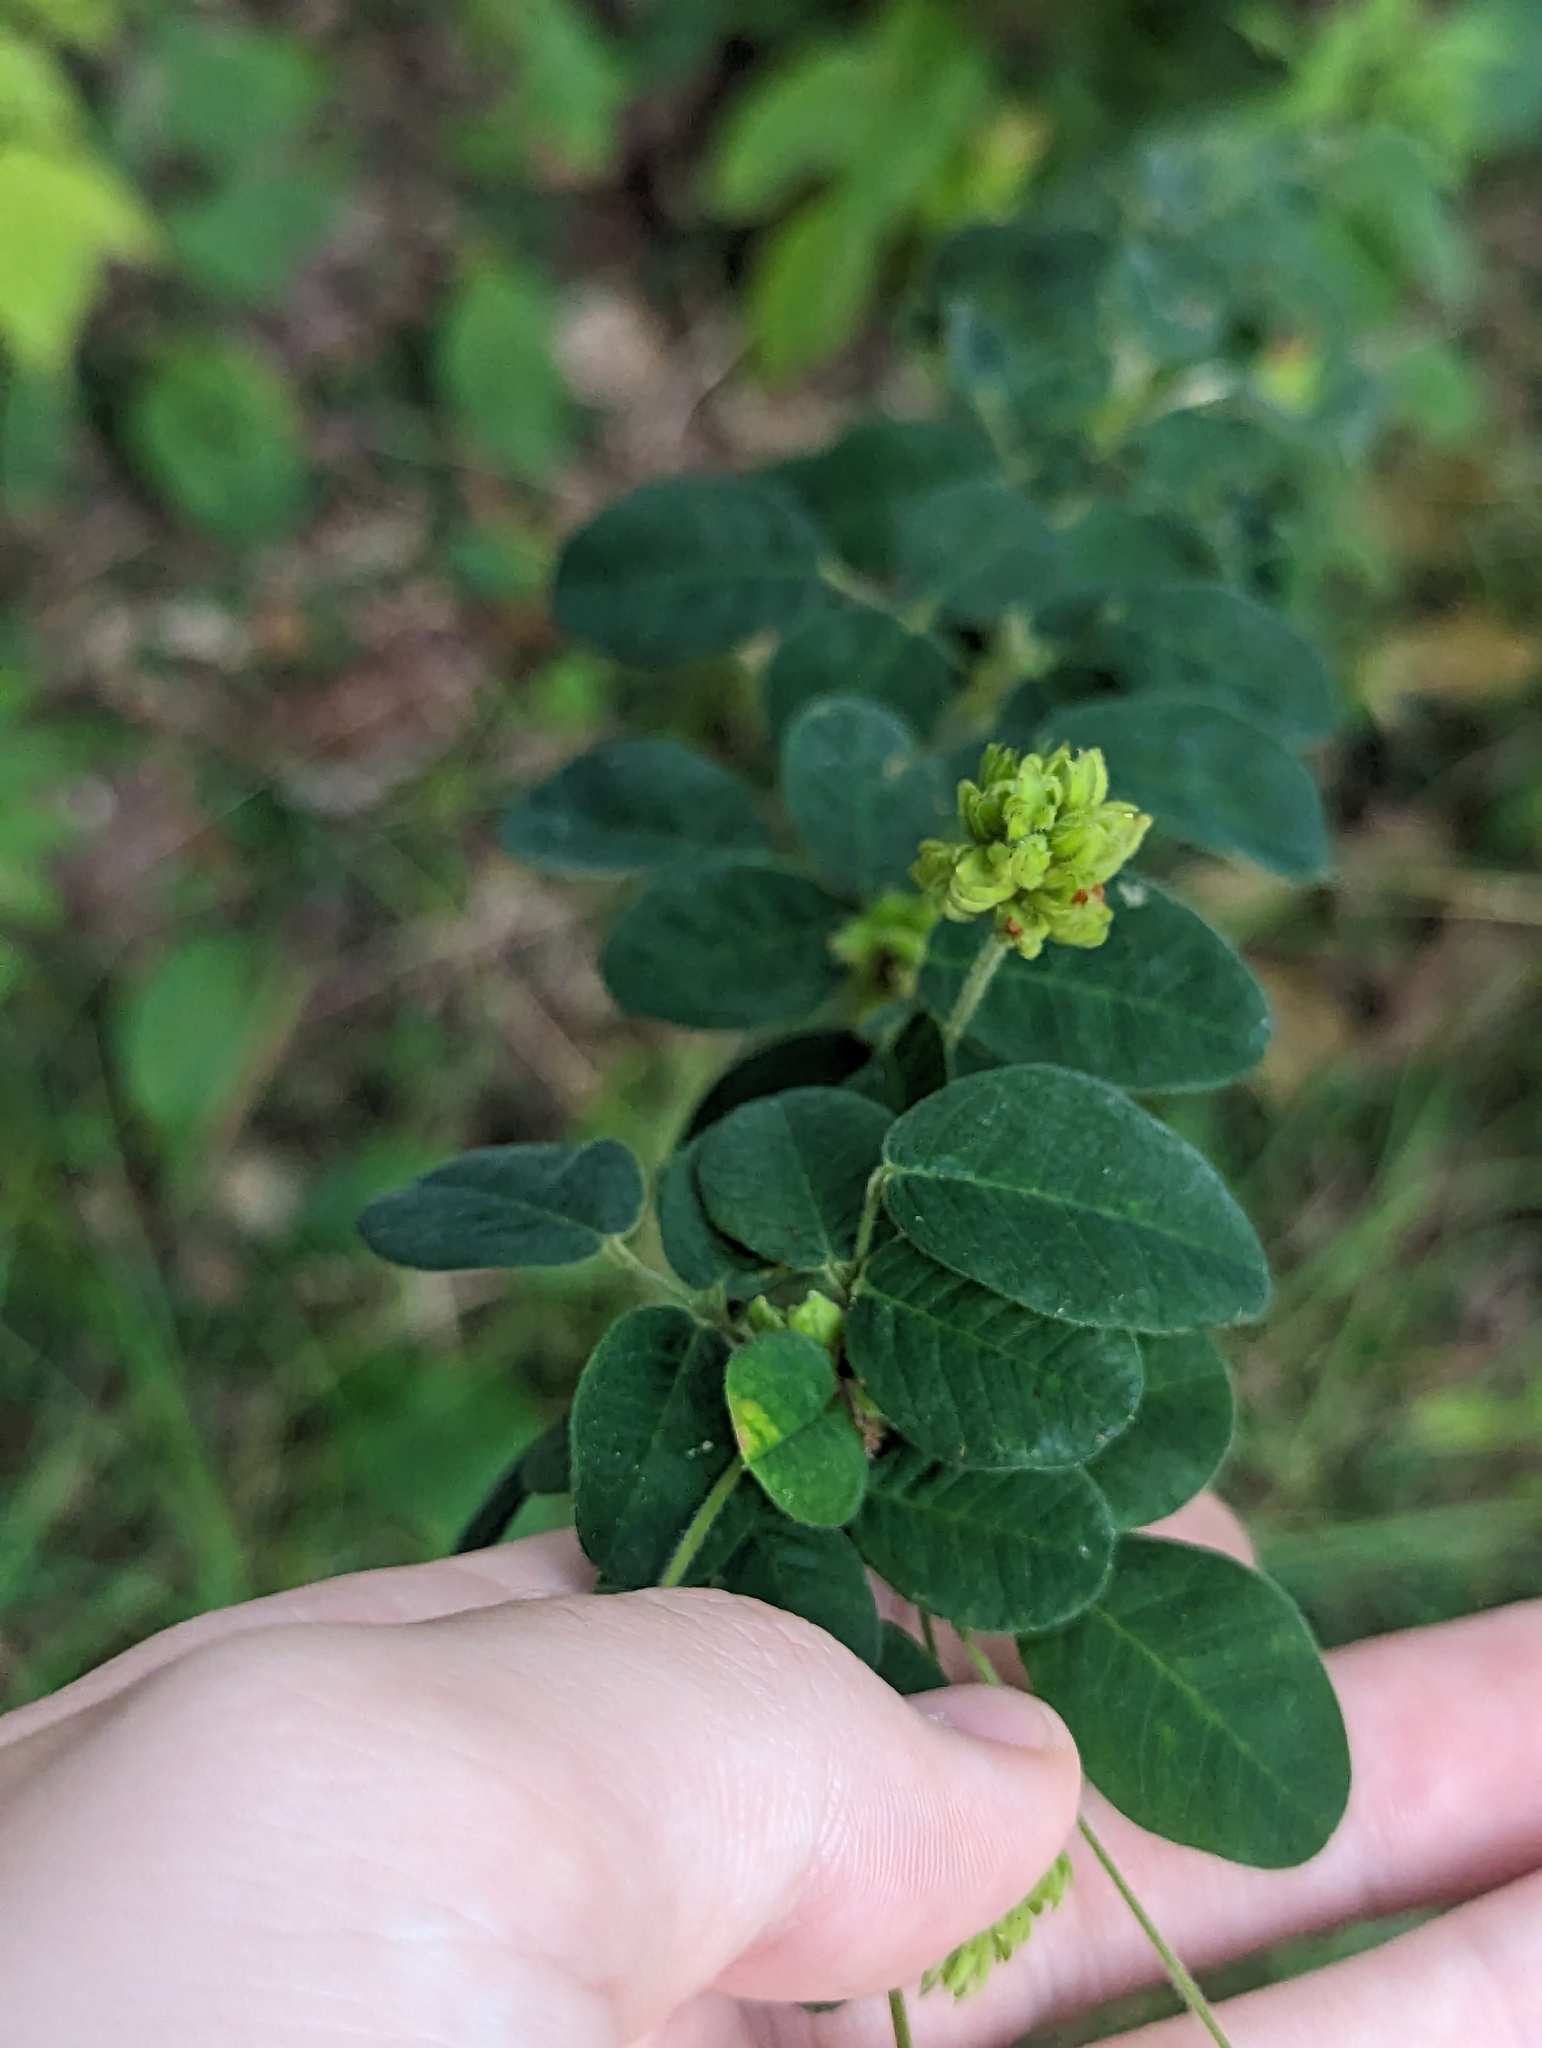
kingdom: Plantae
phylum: Tracheophyta
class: Magnoliopsida
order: Fabales
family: Fabaceae
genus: Lespedeza
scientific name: Lespedeza hirta
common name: Hairy lespedeza
